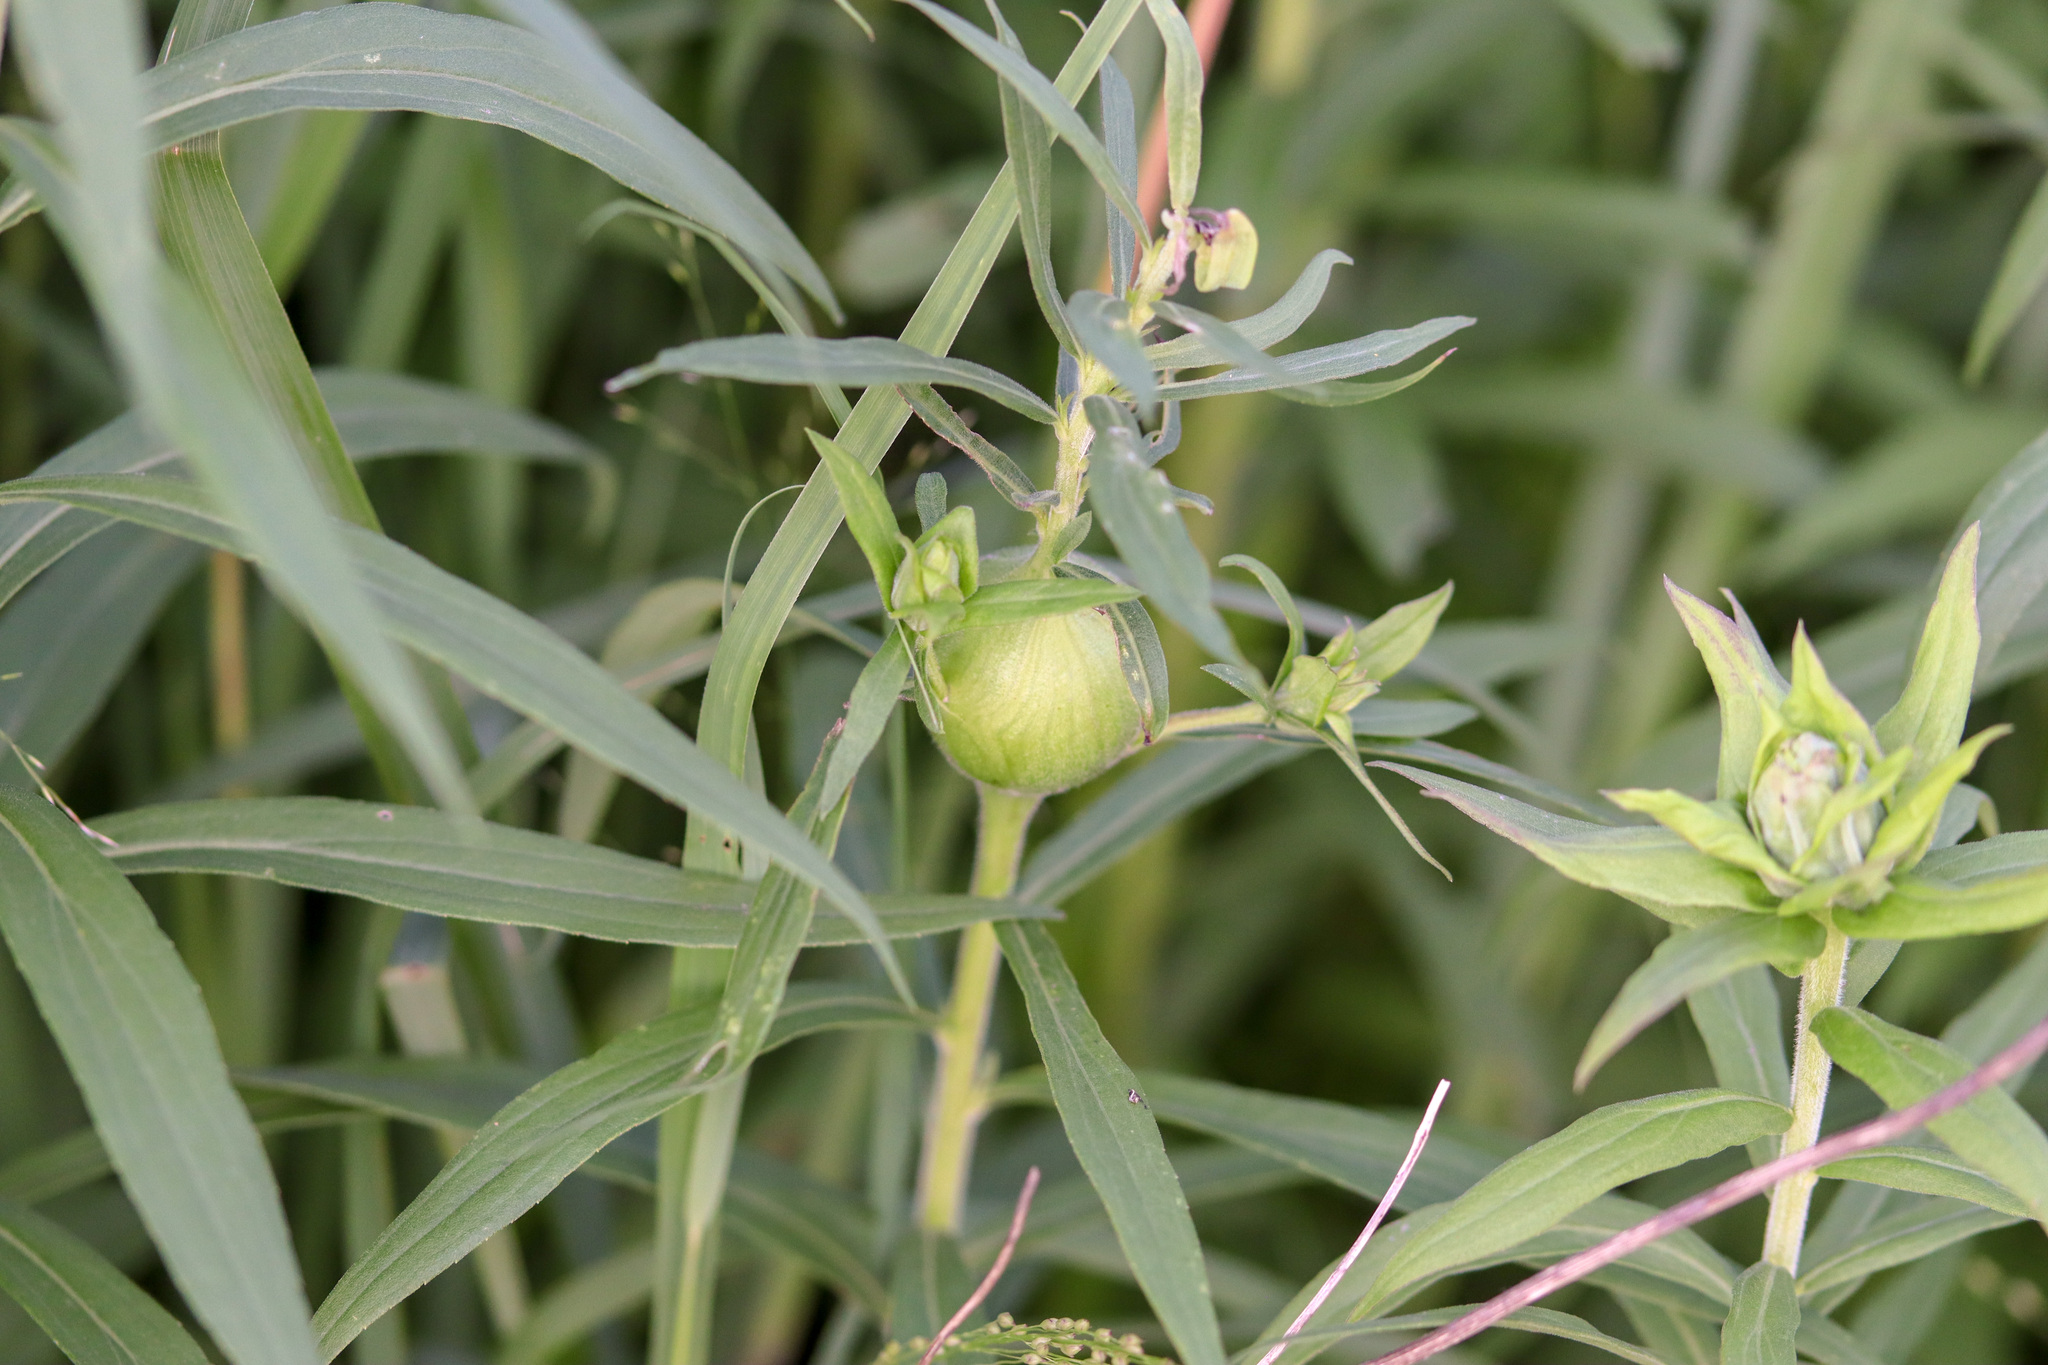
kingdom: Animalia
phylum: Arthropoda
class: Insecta
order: Diptera
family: Tephritidae
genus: Eurosta
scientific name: Eurosta solidaginis
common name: Goldenrod gall fly
